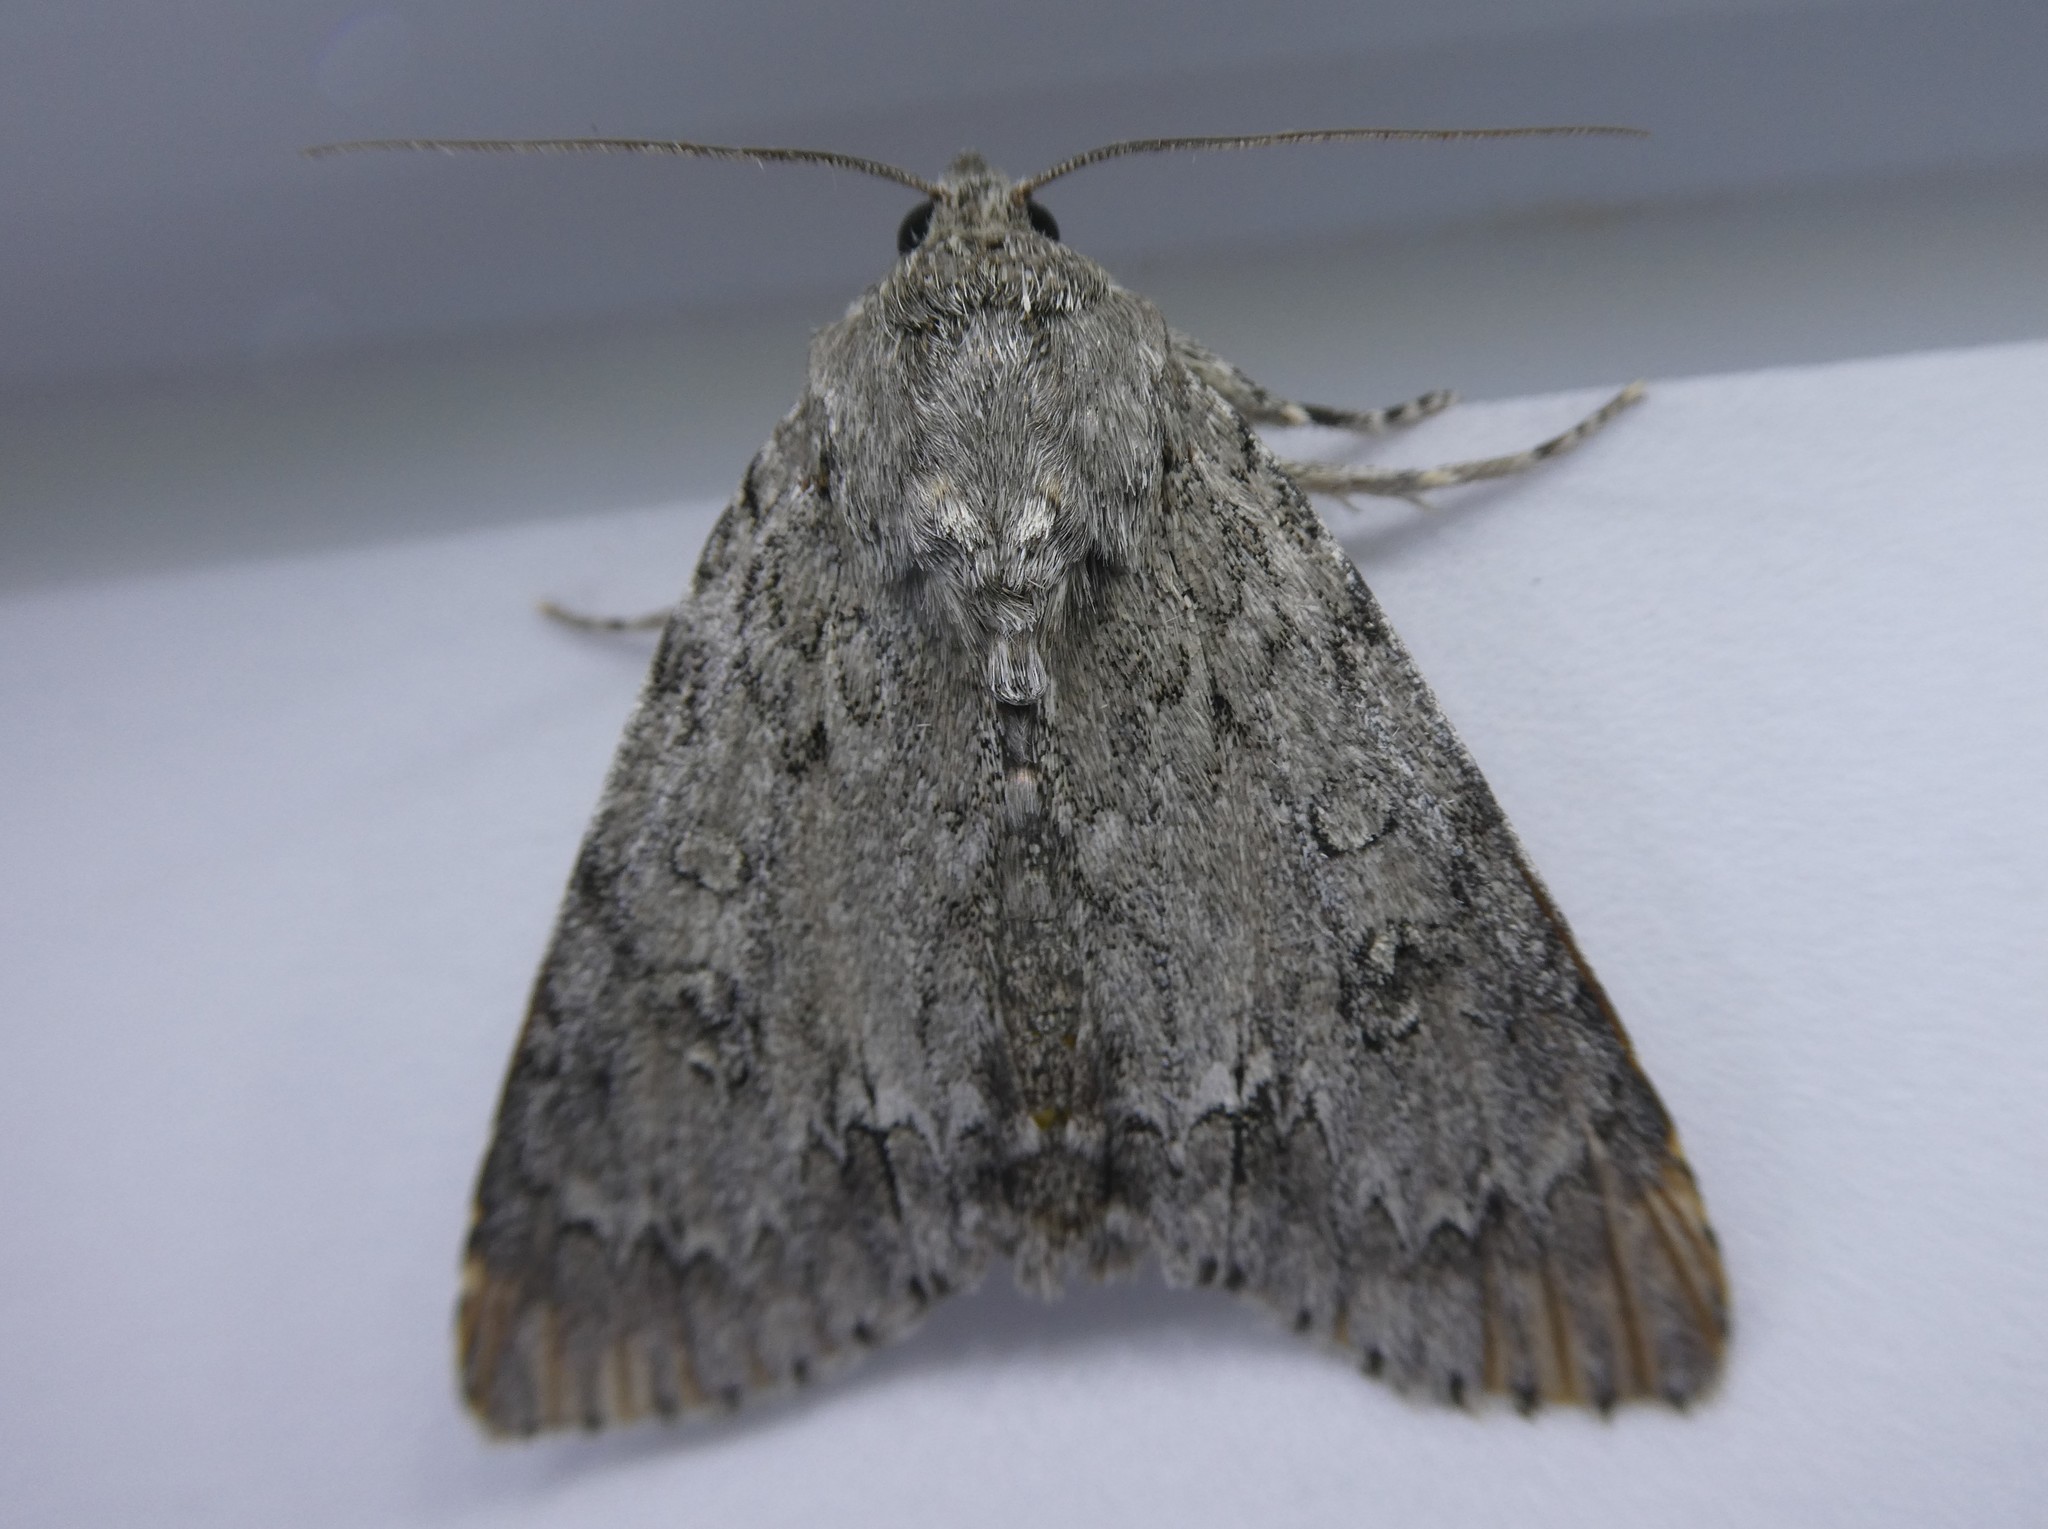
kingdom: Animalia
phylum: Arthropoda
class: Insecta
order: Lepidoptera
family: Noctuidae
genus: Acronicta
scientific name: Acronicta americana
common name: American dagger
